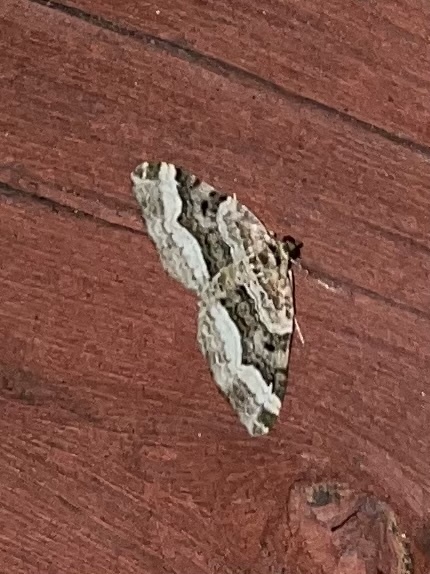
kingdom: Animalia
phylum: Arthropoda
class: Insecta
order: Lepidoptera
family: Geometridae
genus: Xanthorhoe
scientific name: Xanthorhoe lacustrata
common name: Toothed brown carpet
